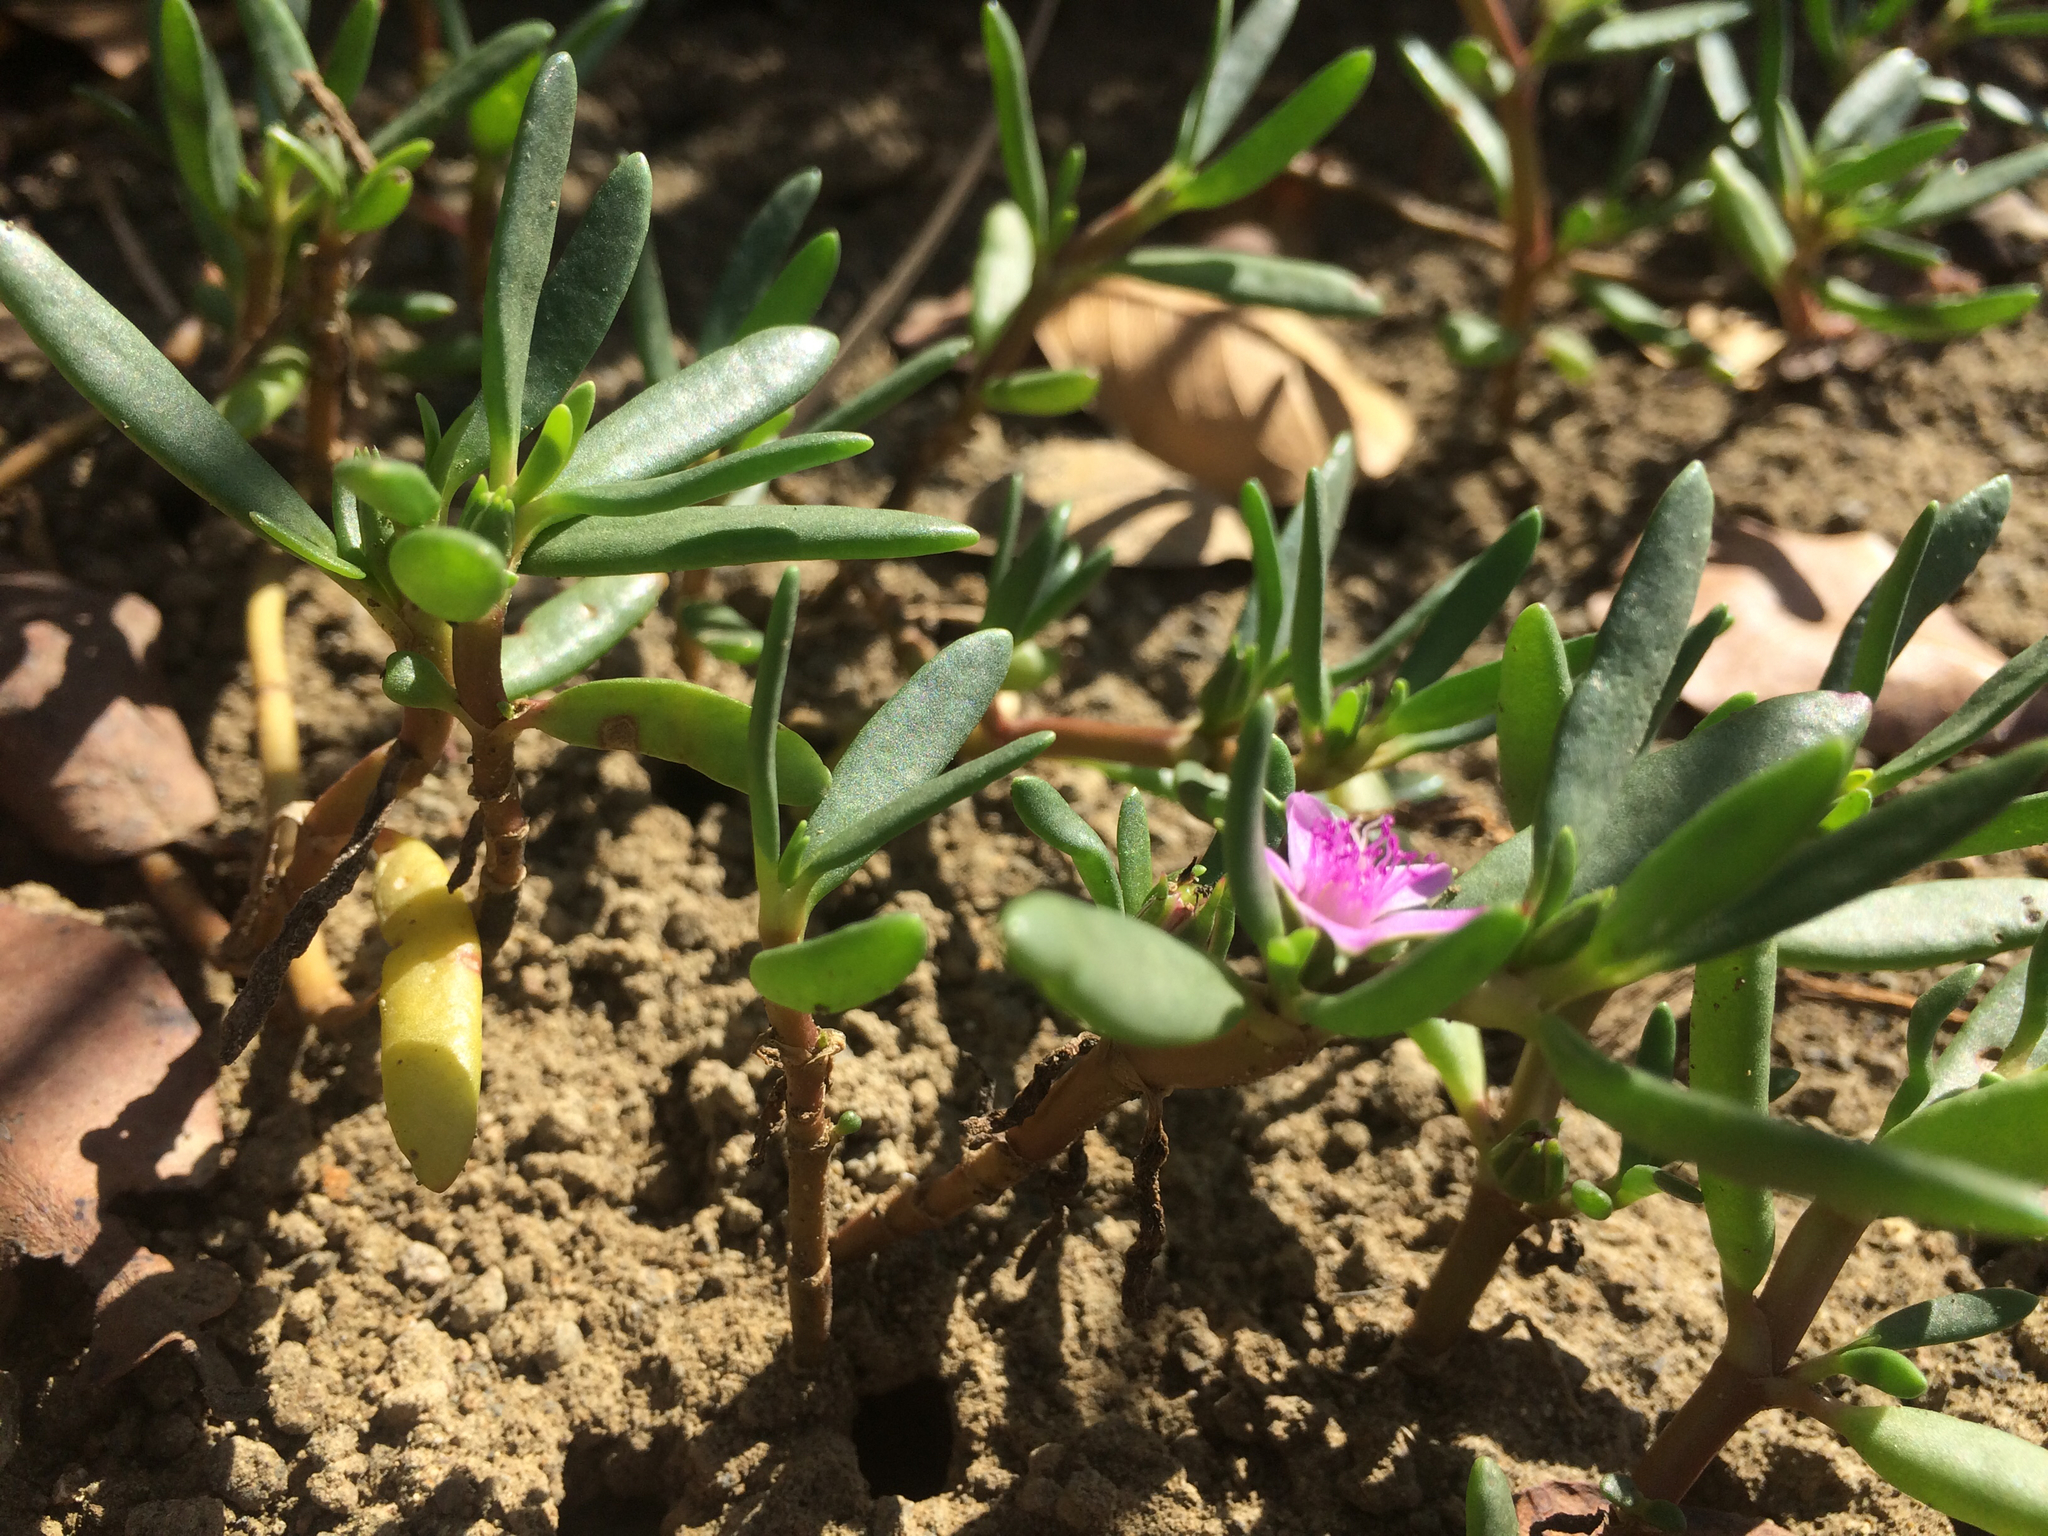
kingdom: Plantae
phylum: Tracheophyta
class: Magnoliopsida
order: Caryophyllales
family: Aizoaceae
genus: Sesuvium
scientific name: Sesuvium portulacastrum
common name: Sea-purslane
